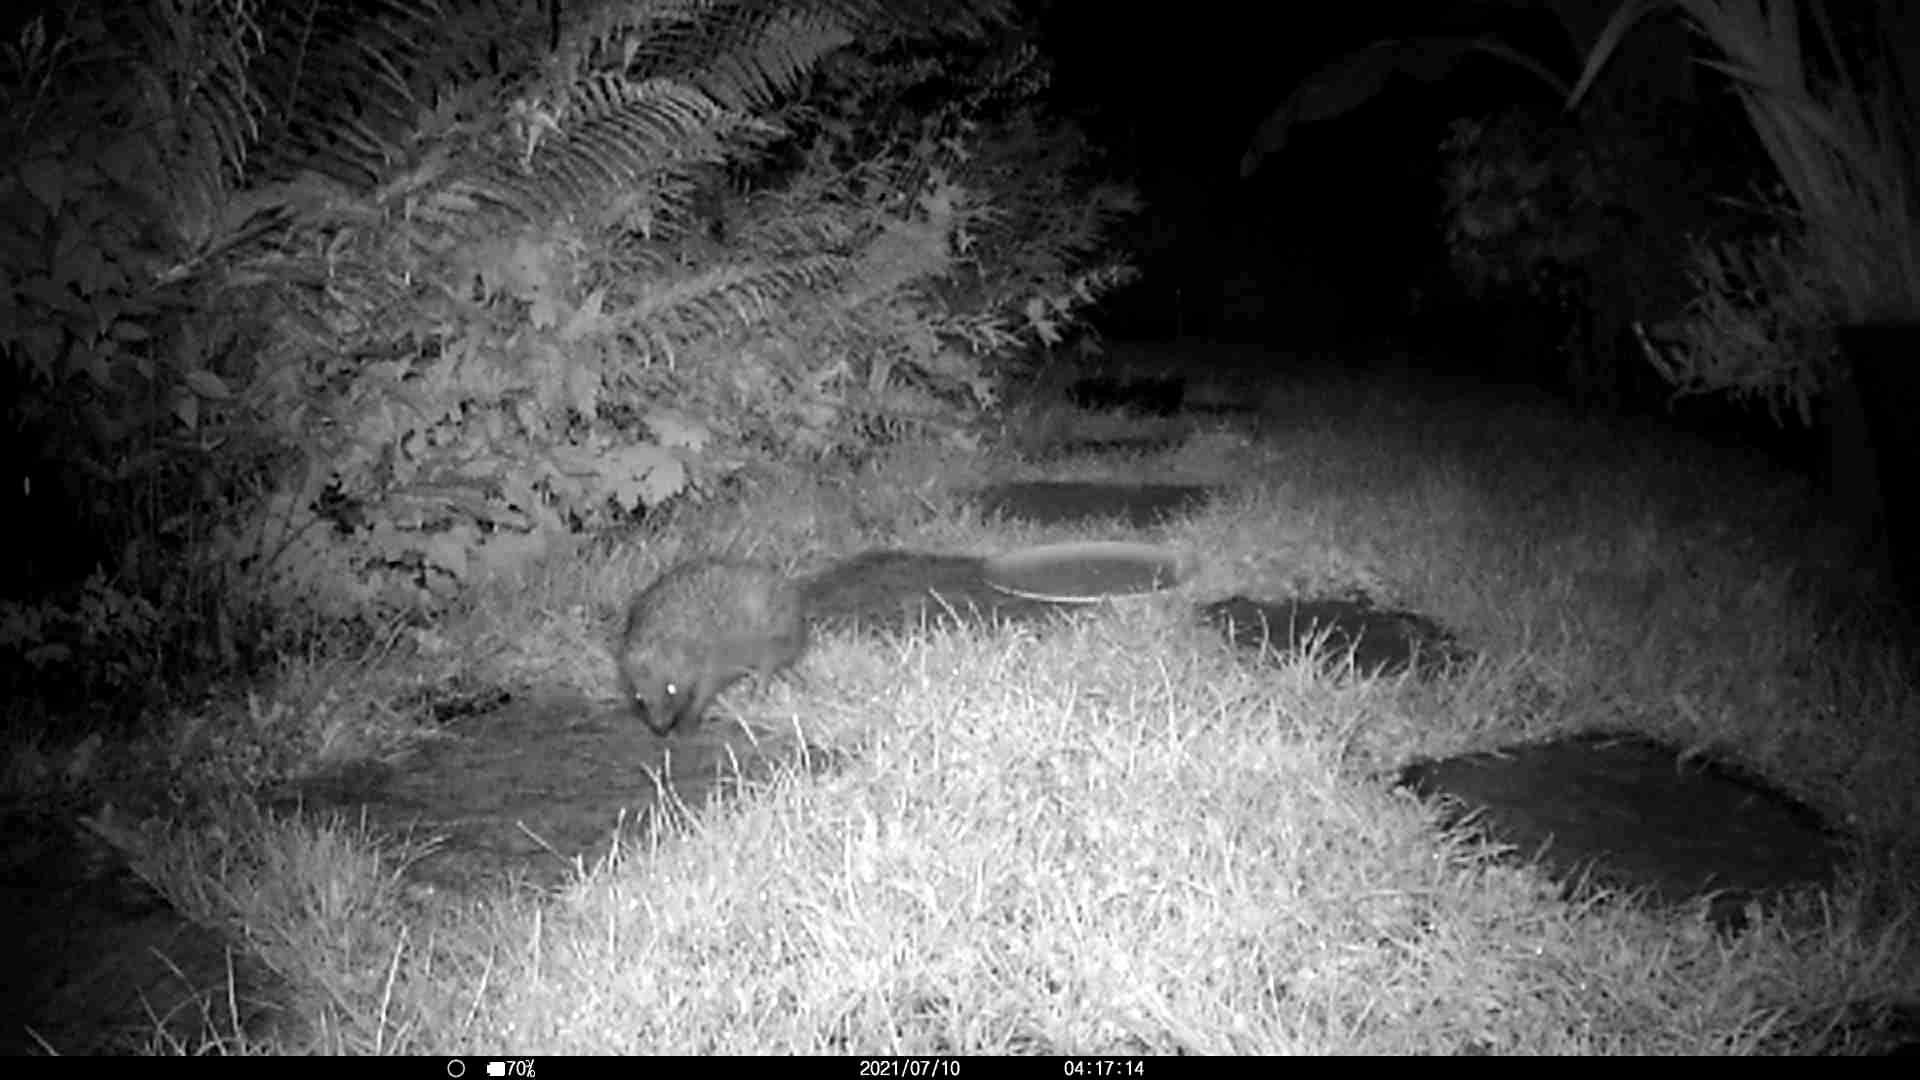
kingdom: Animalia
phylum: Chordata
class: Mammalia
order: Erinaceomorpha
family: Erinaceidae
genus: Erinaceus
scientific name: Erinaceus europaeus
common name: West european hedgehog
